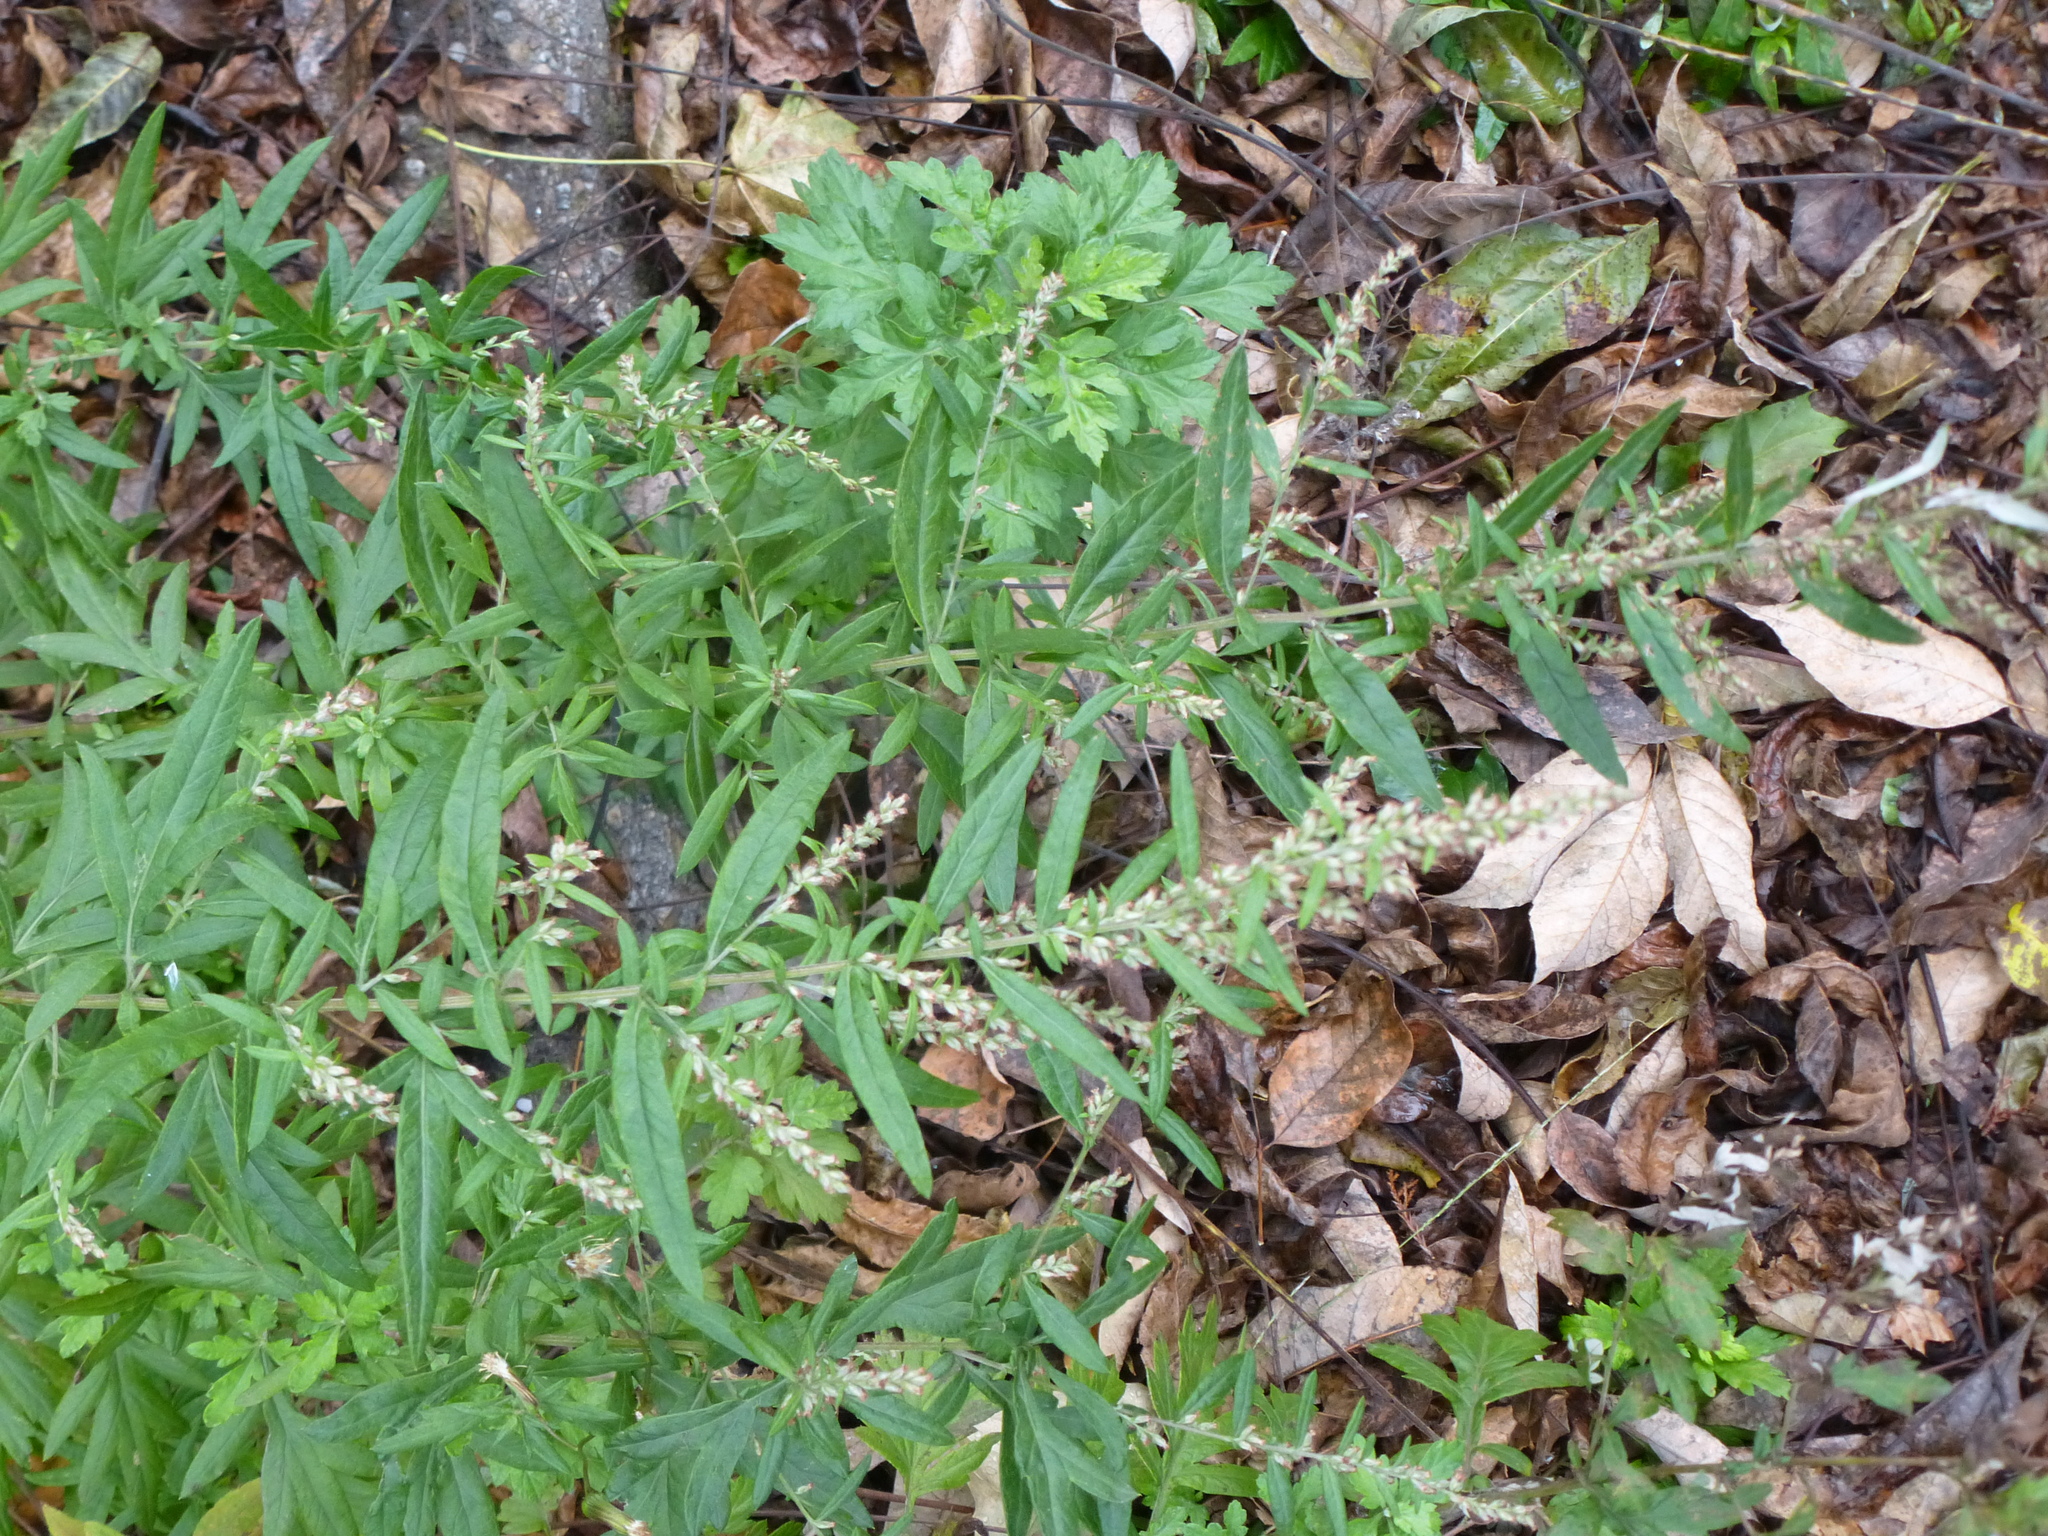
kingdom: Plantae
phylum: Tracheophyta
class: Magnoliopsida
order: Asterales
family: Asteraceae
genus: Artemisia
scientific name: Artemisia vulgaris
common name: Mugwort
